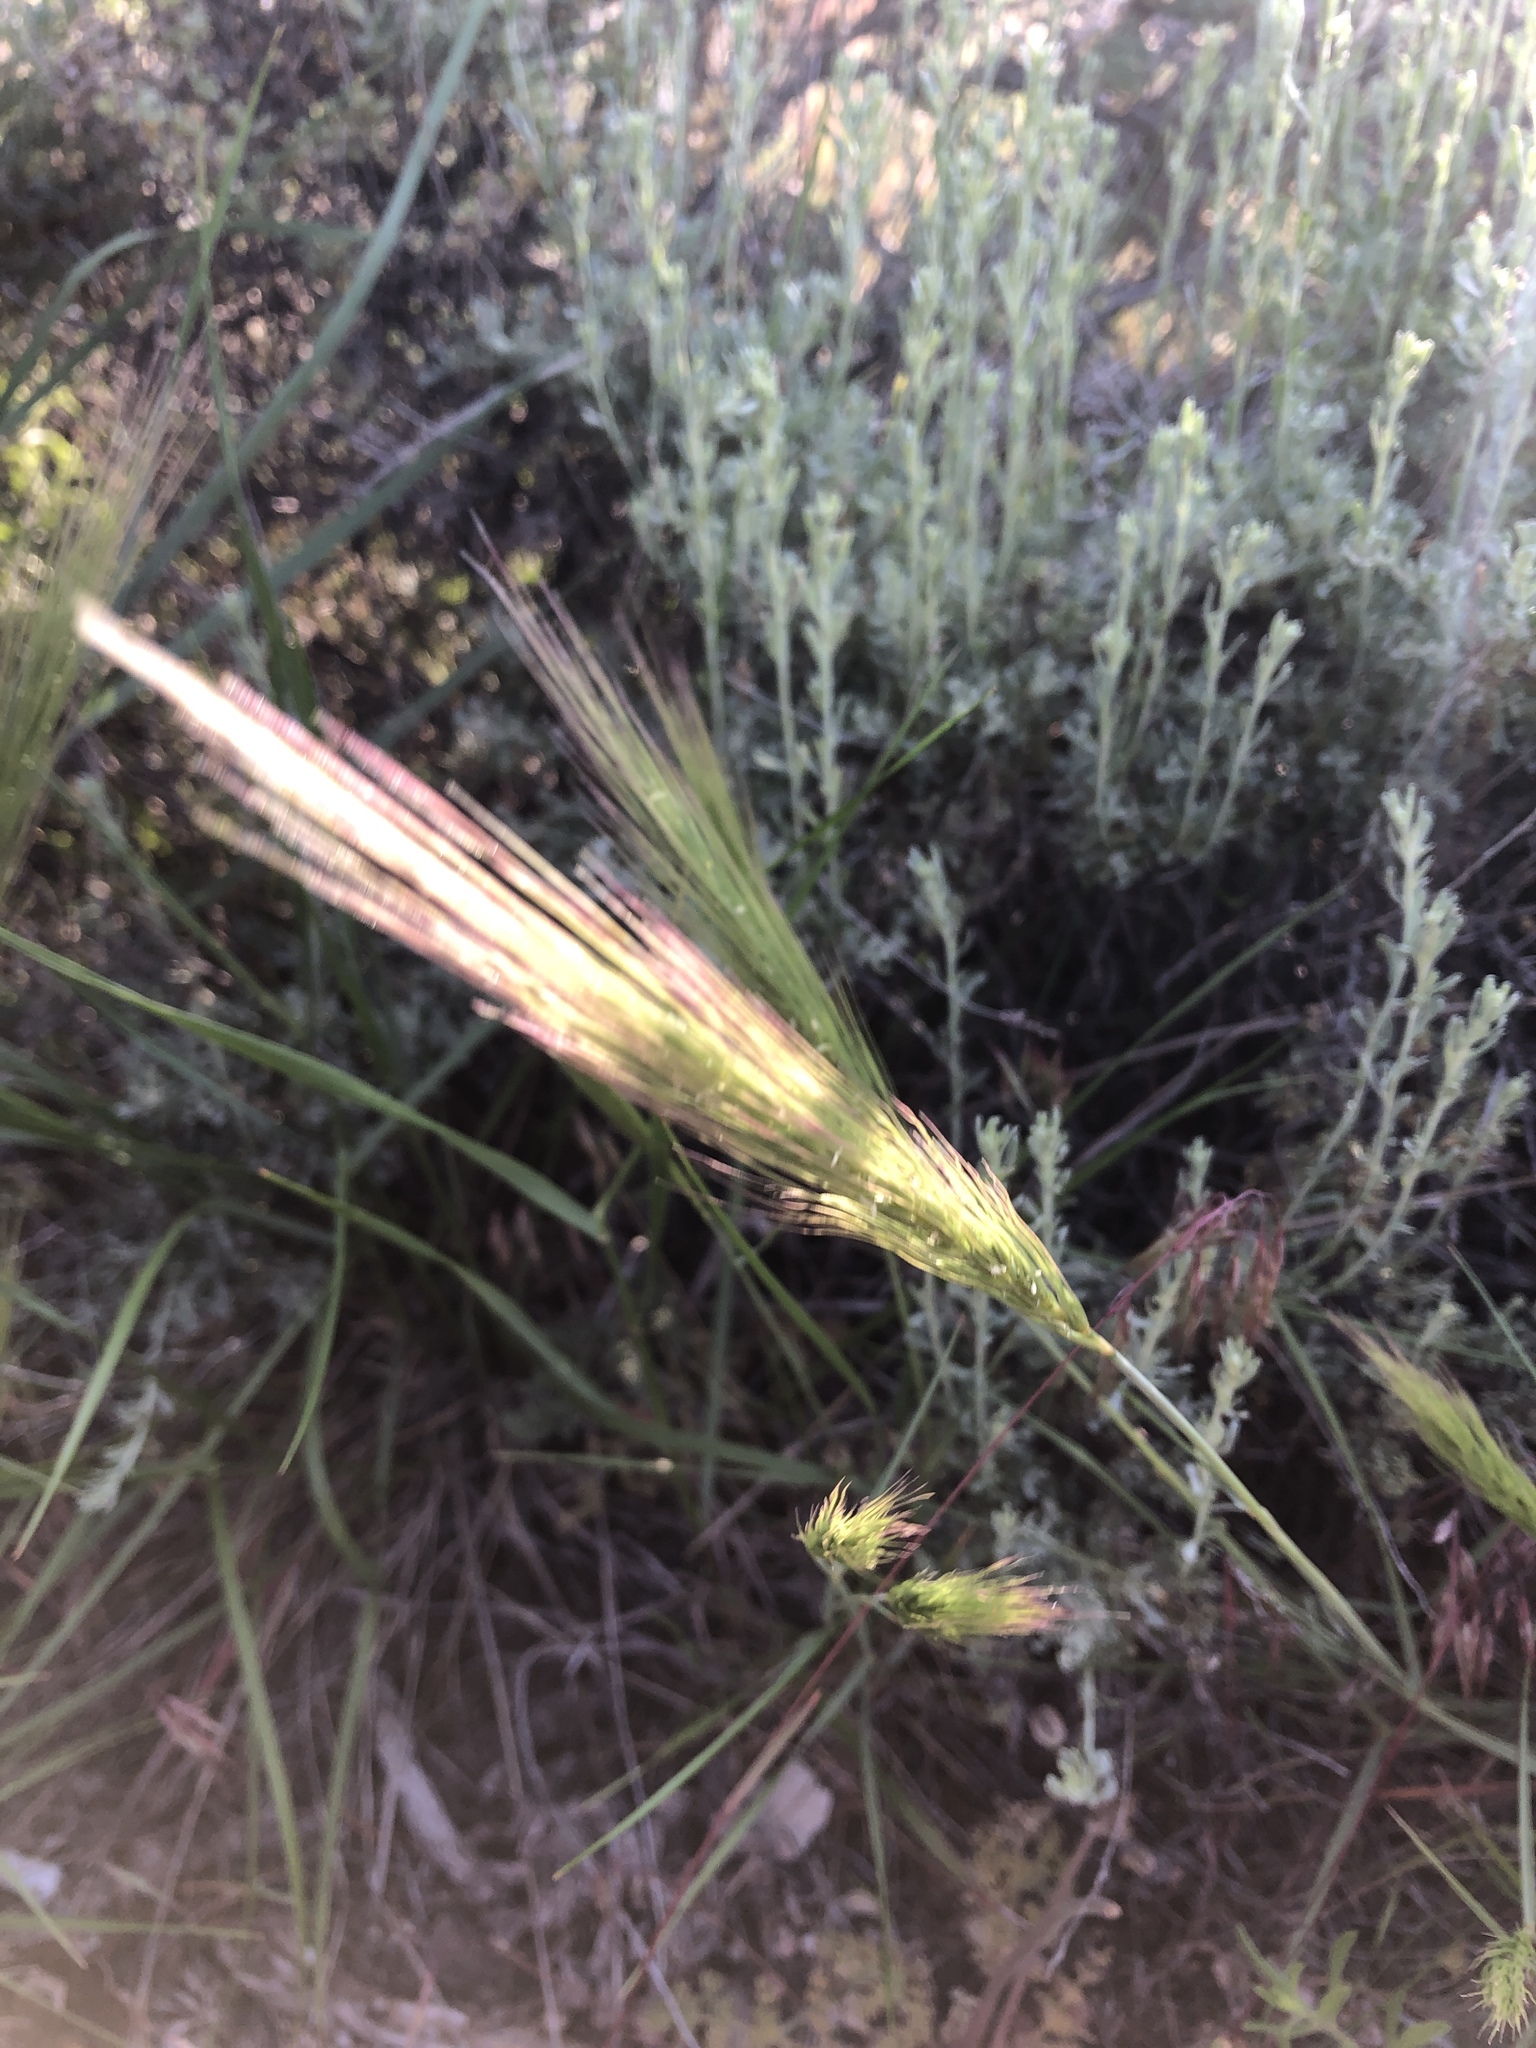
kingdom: Plantae
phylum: Tracheophyta
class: Liliopsida
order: Poales
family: Poaceae
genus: Elymus
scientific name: Elymus elymoides
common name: Bottlebrush squirreltail
